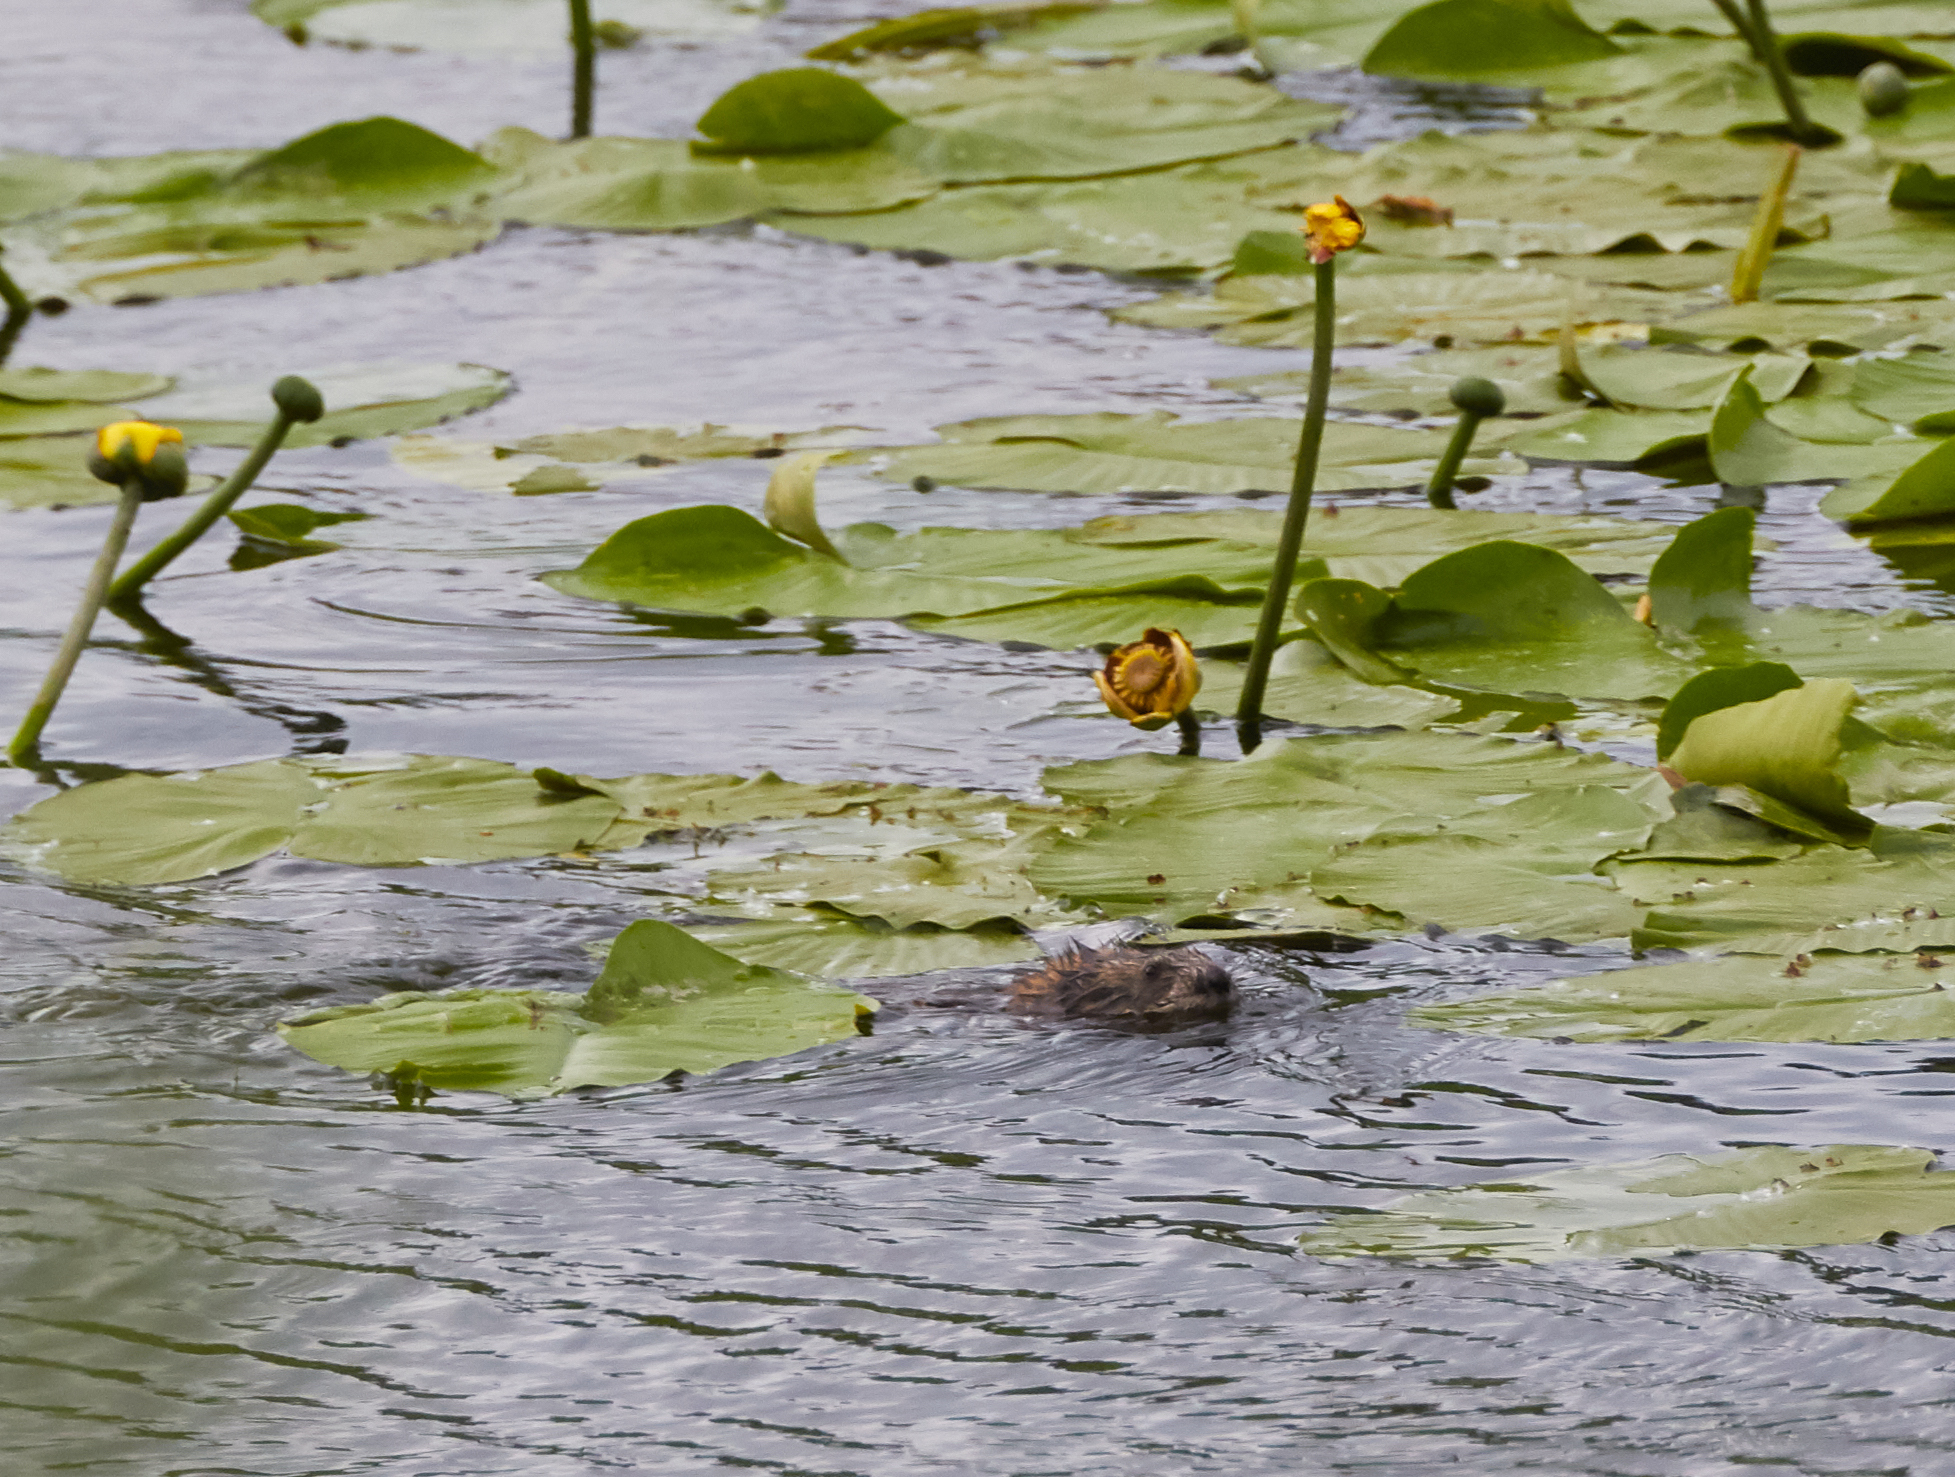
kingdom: Plantae
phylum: Tracheophyta
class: Magnoliopsida
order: Nymphaeales
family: Nymphaeaceae
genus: Nuphar
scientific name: Nuphar variegata
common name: Beaver-root
